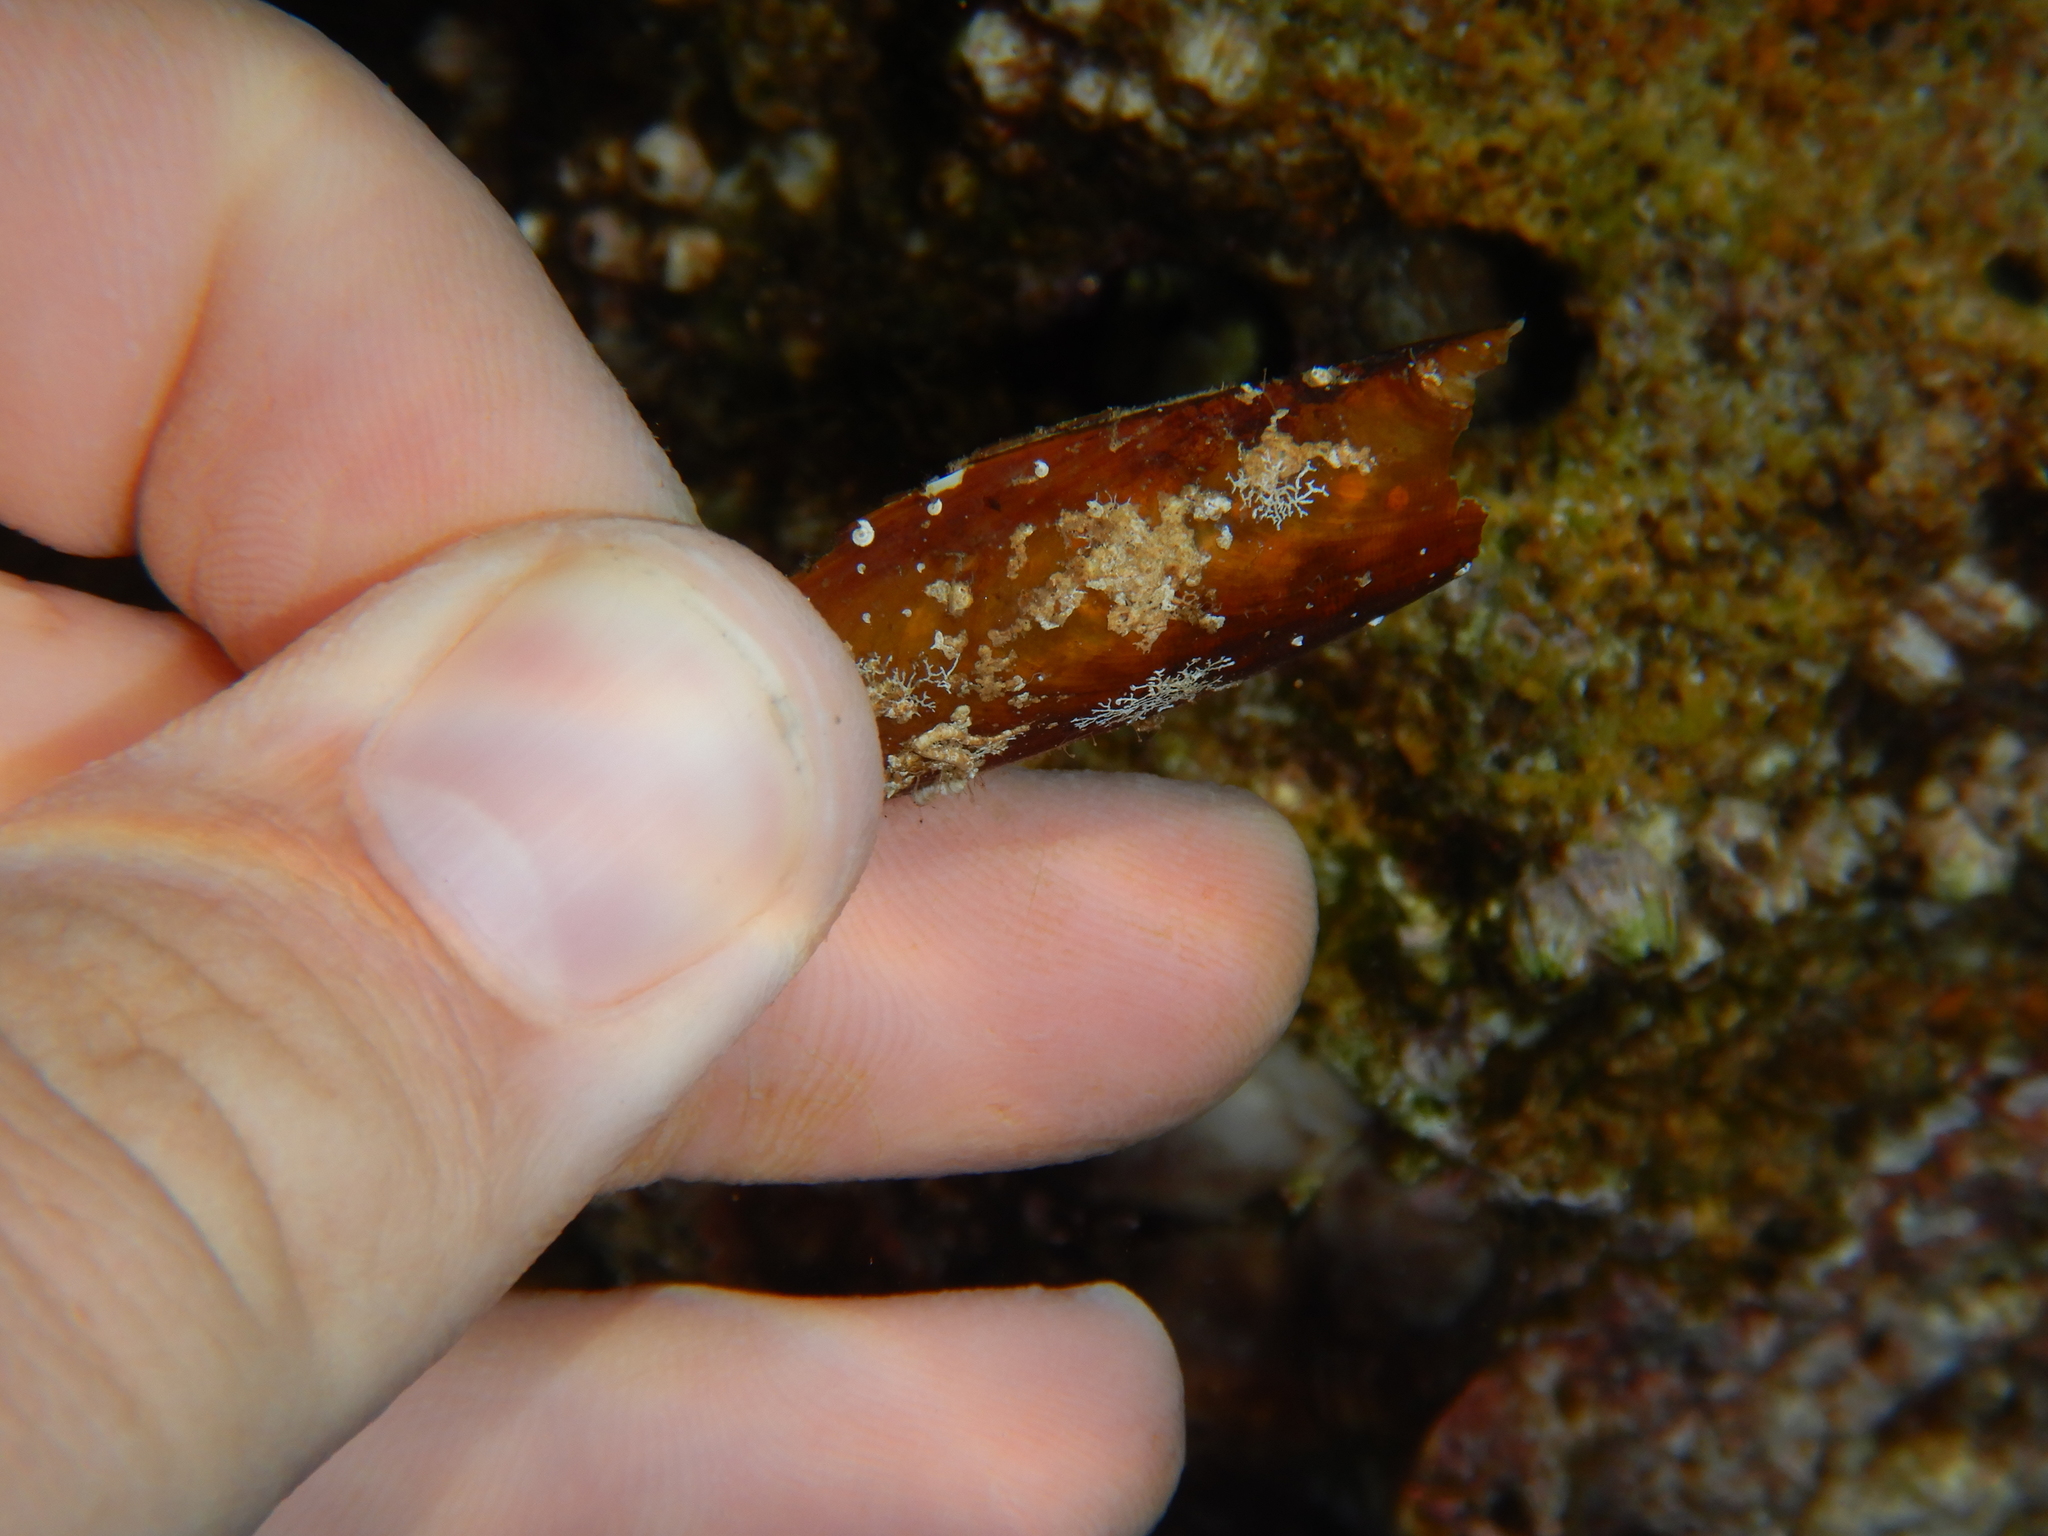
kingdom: Animalia
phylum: Mollusca
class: Bivalvia
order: Mytilida
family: Mytilidae
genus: Lithophaga
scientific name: Lithophaga lithophaga
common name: European date mussel
